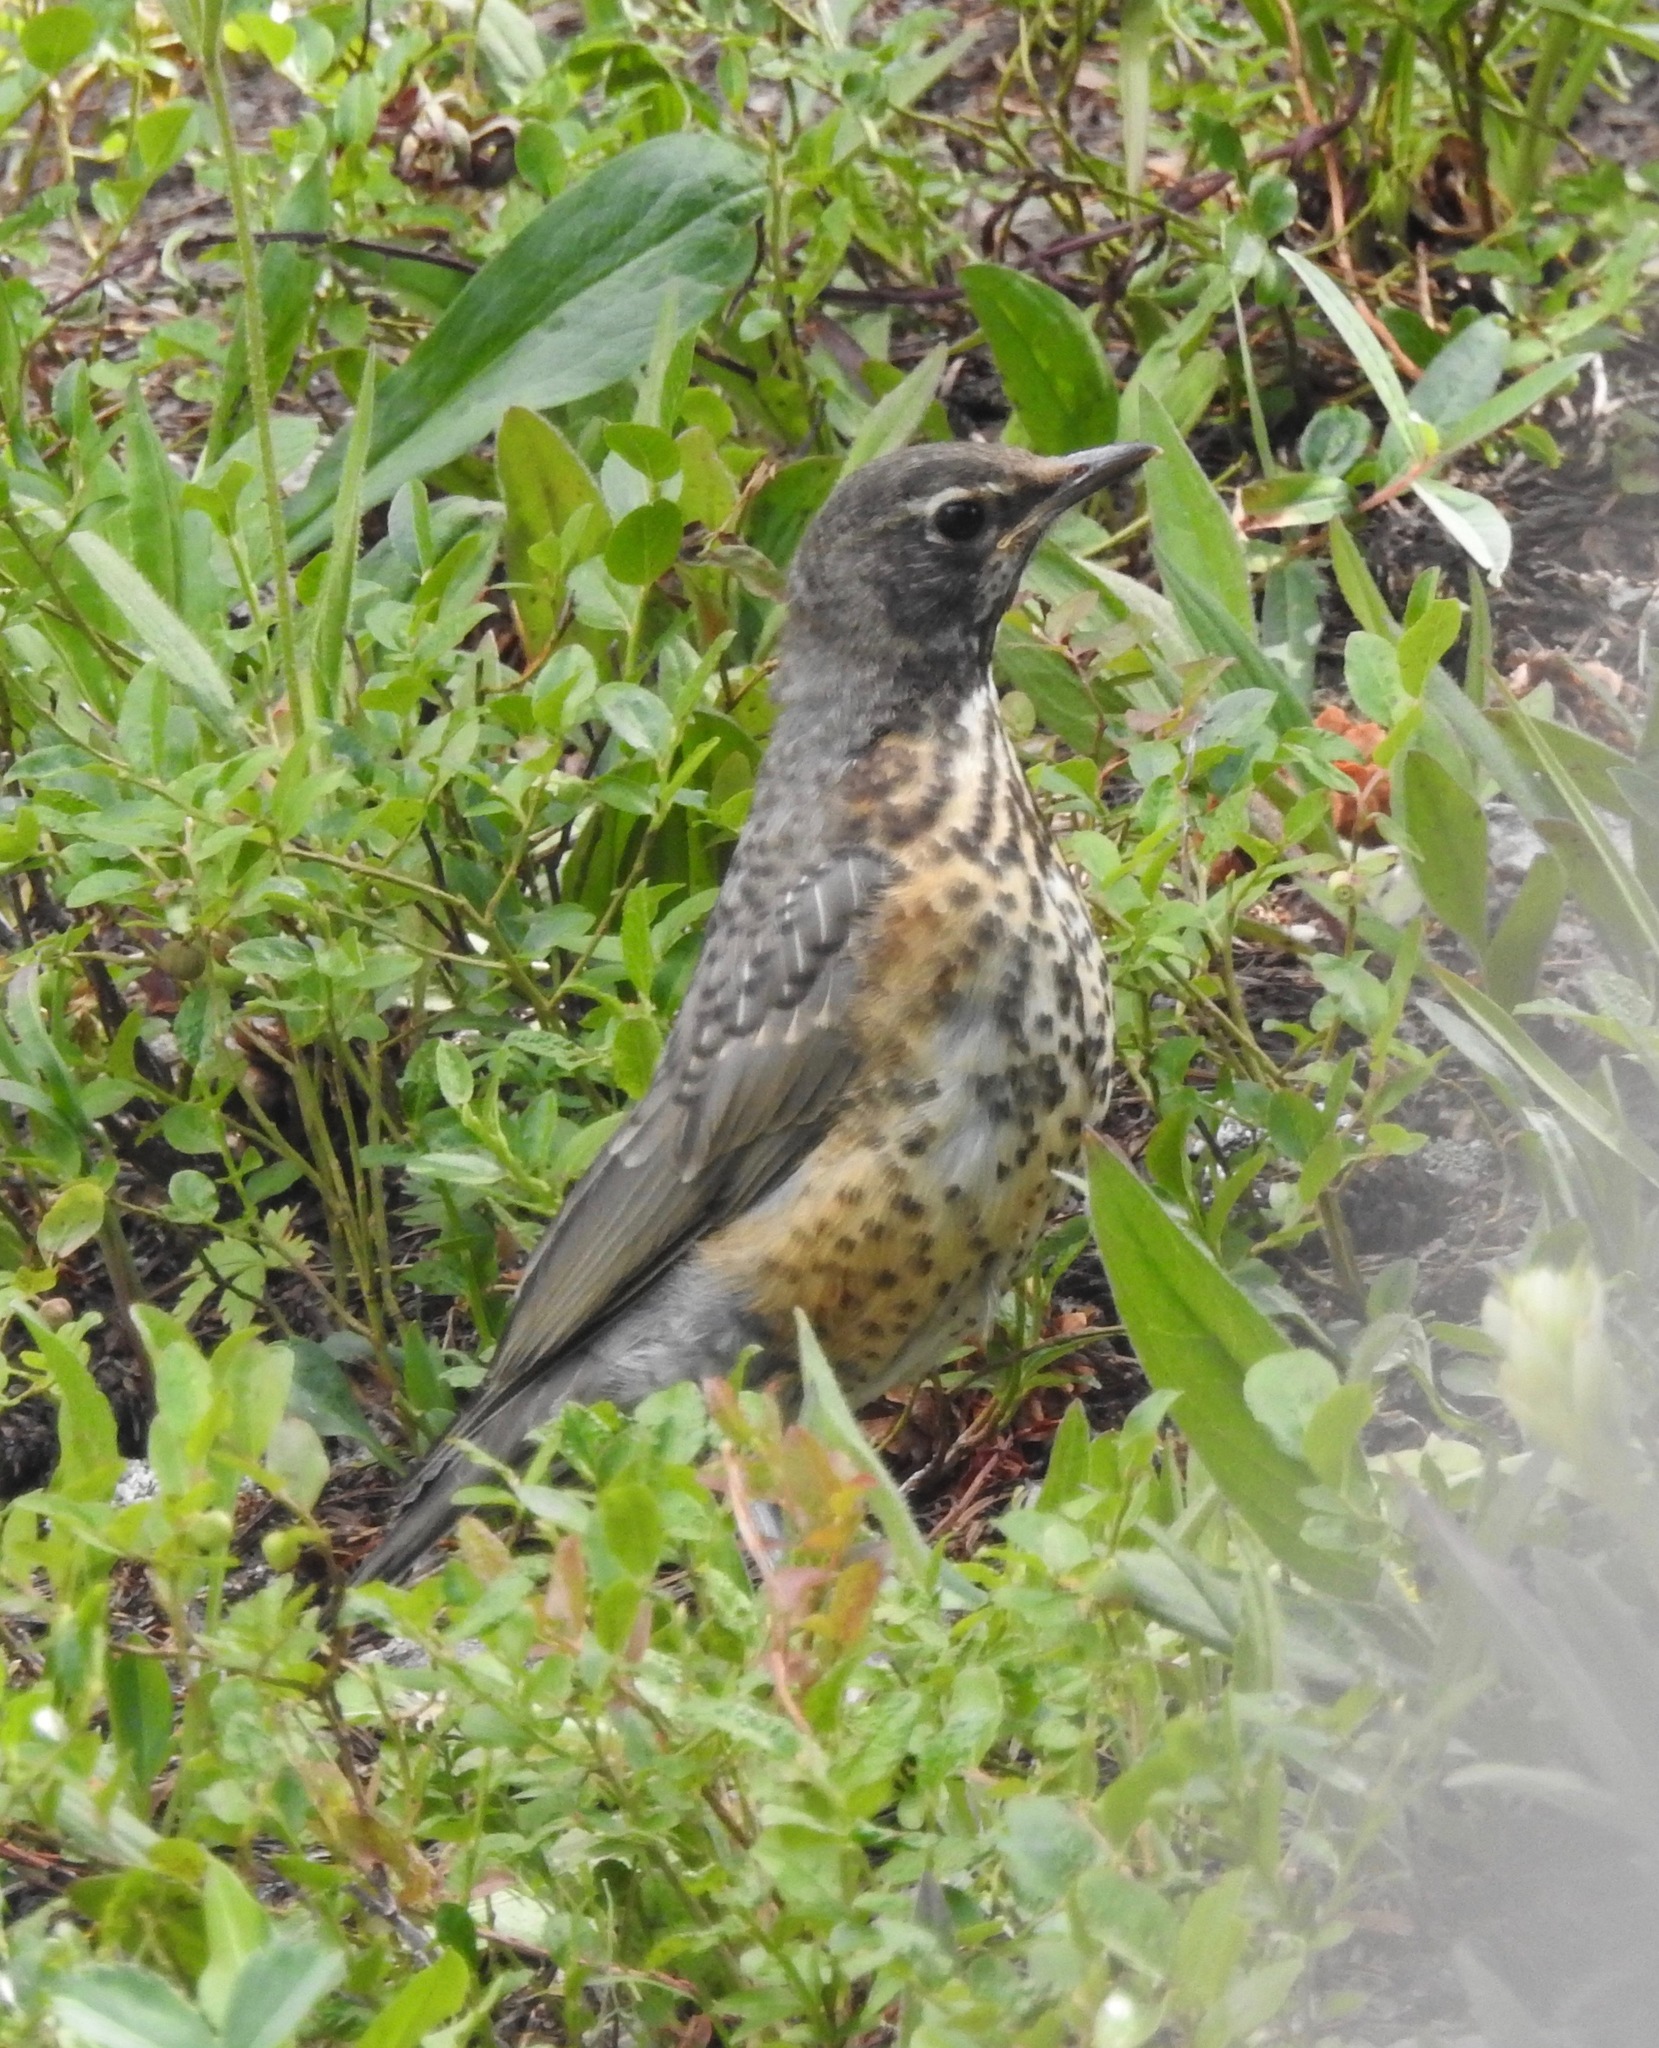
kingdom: Animalia
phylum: Chordata
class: Aves
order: Passeriformes
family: Turdidae
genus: Turdus
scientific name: Turdus migratorius
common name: American robin
